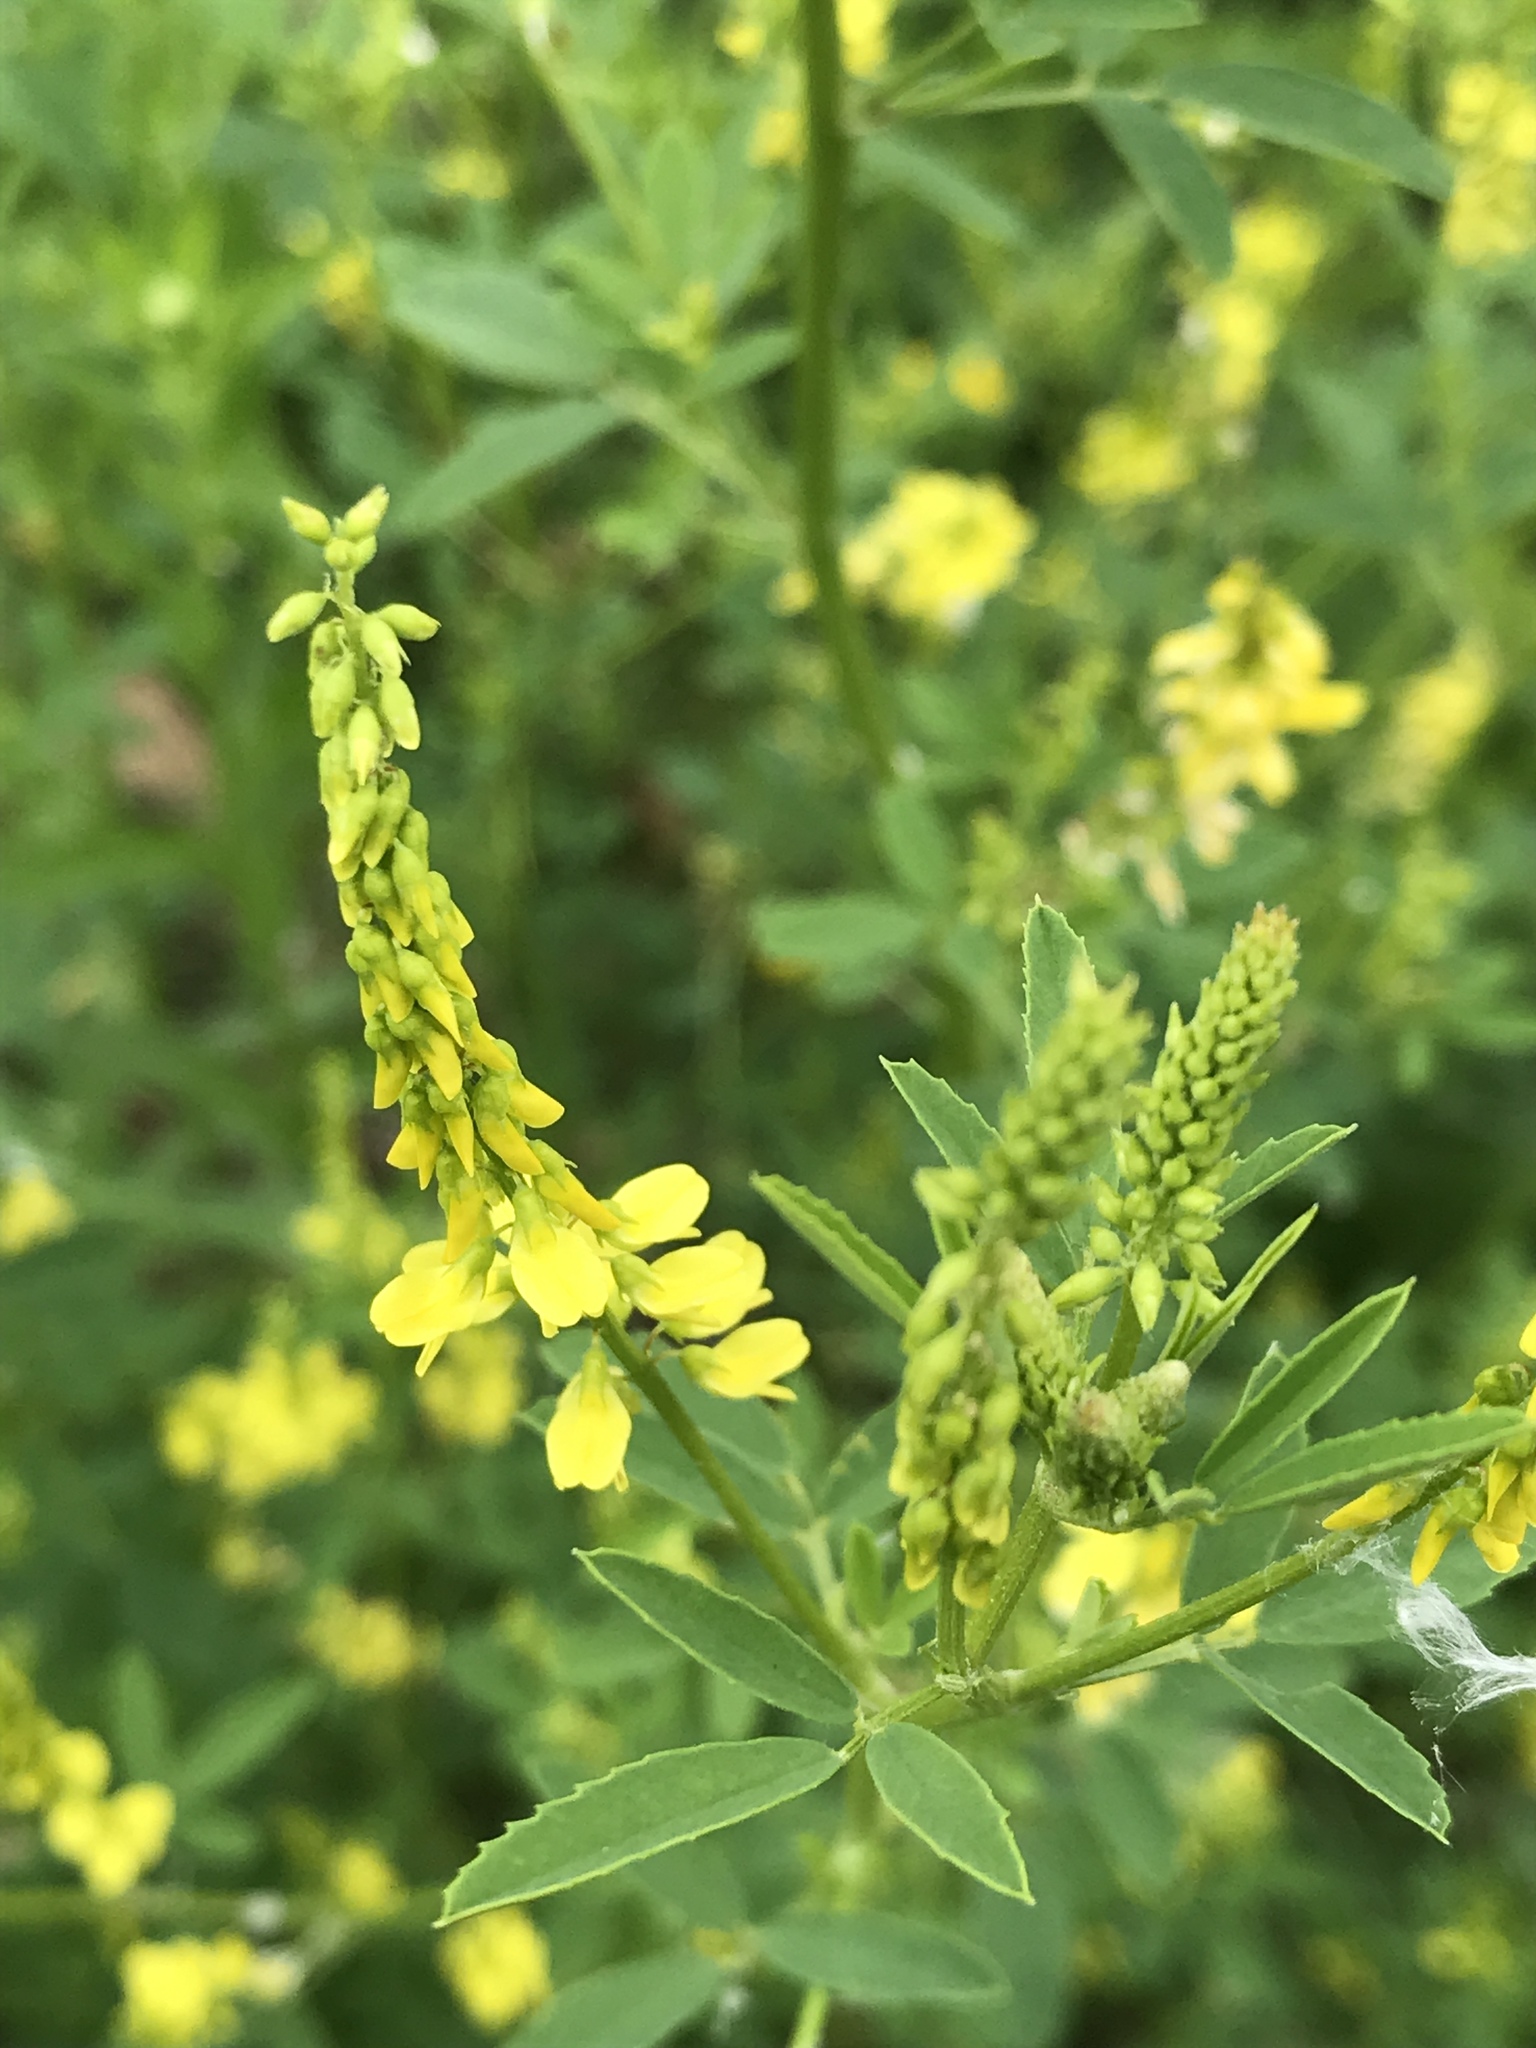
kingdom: Plantae
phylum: Tracheophyta
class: Magnoliopsida
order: Fabales
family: Fabaceae
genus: Melilotus
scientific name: Melilotus officinalis
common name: Sweetclover
